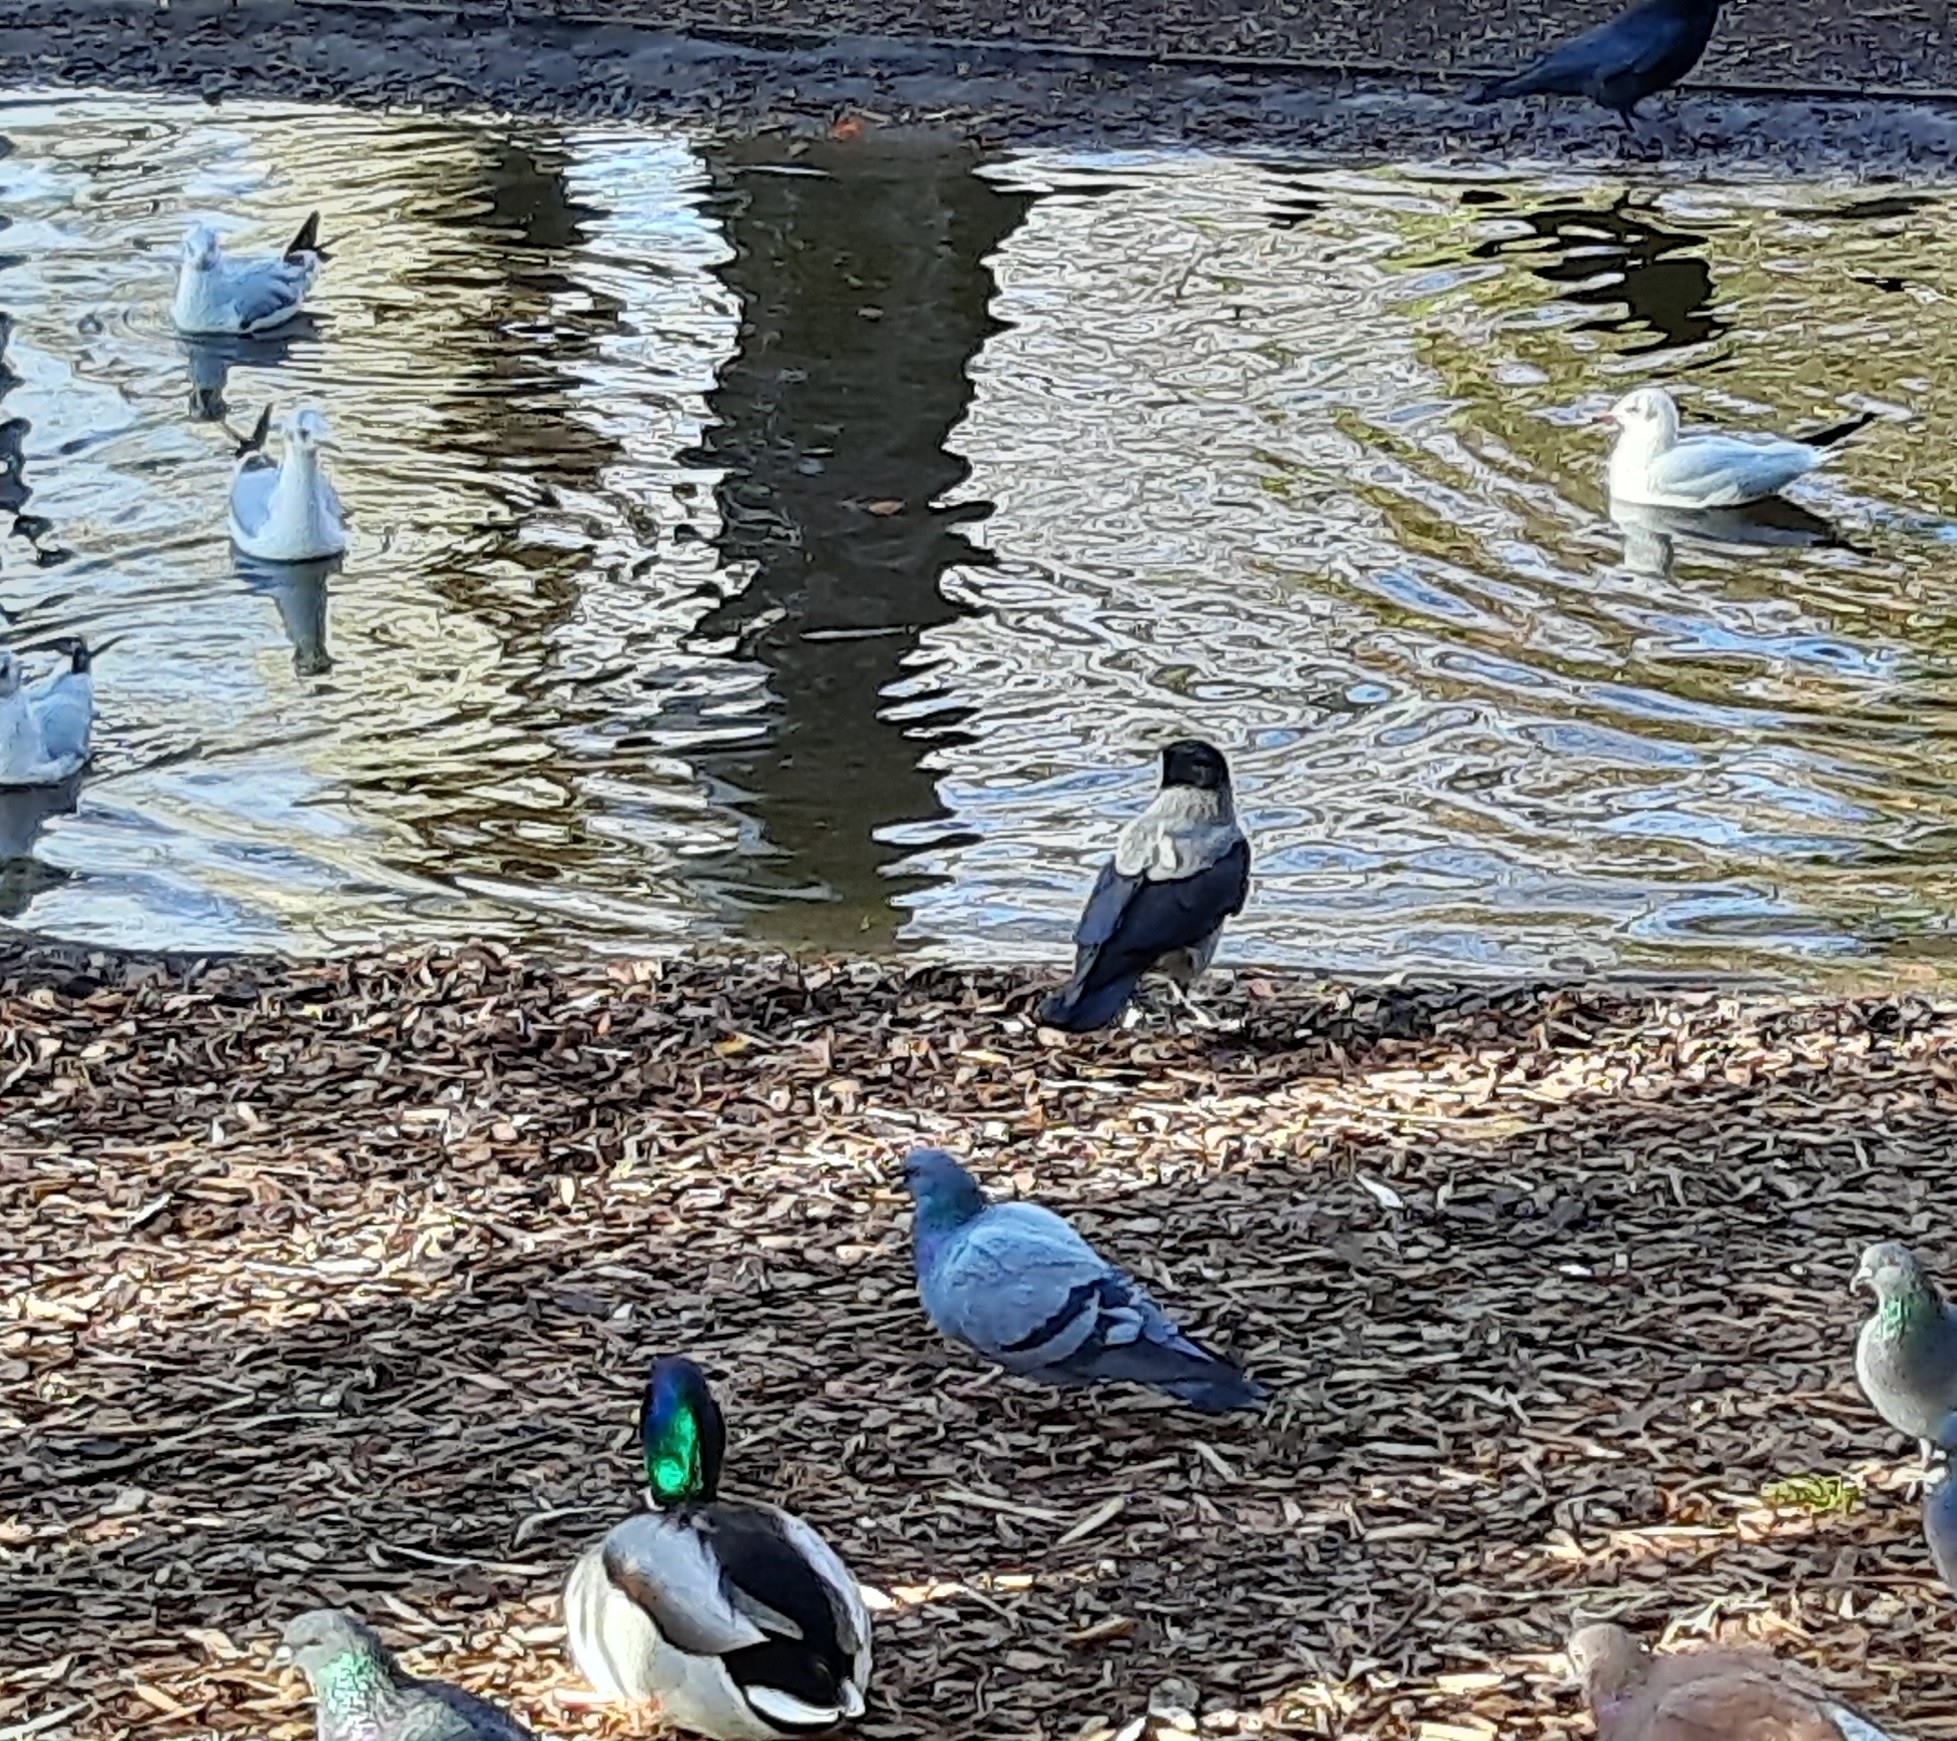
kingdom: Animalia
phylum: Chordata
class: Aves
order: Passeriformes
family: Corvidae
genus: Corvus
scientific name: Corvus cornix
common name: Hooded crow
